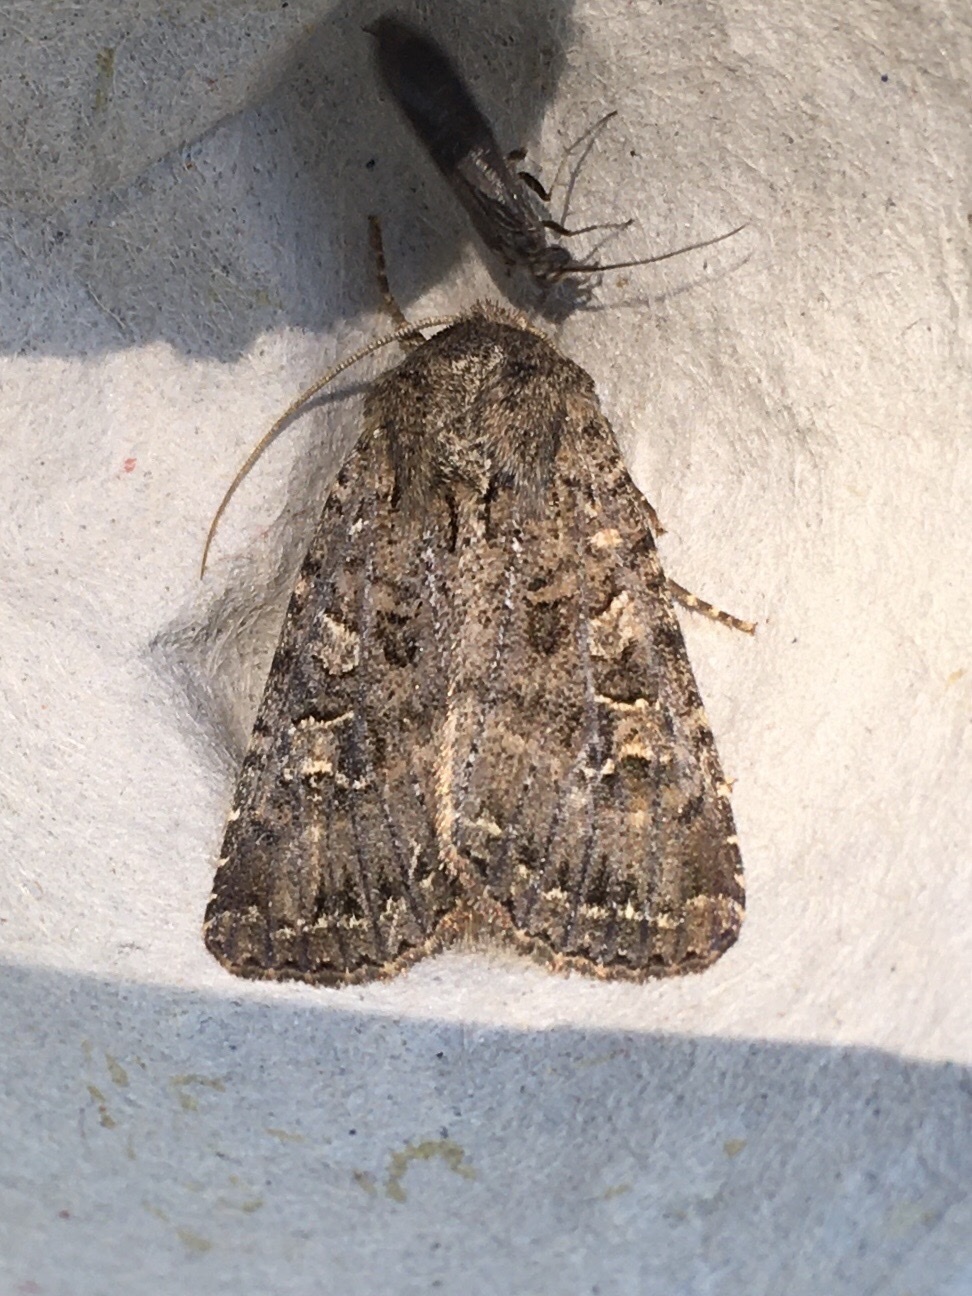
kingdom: Animalia
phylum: Arthropoda
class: Insecta
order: Lepidoptera
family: Noctuidae
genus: Apamea
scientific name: Apamea devastator
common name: Glassy cutworm
